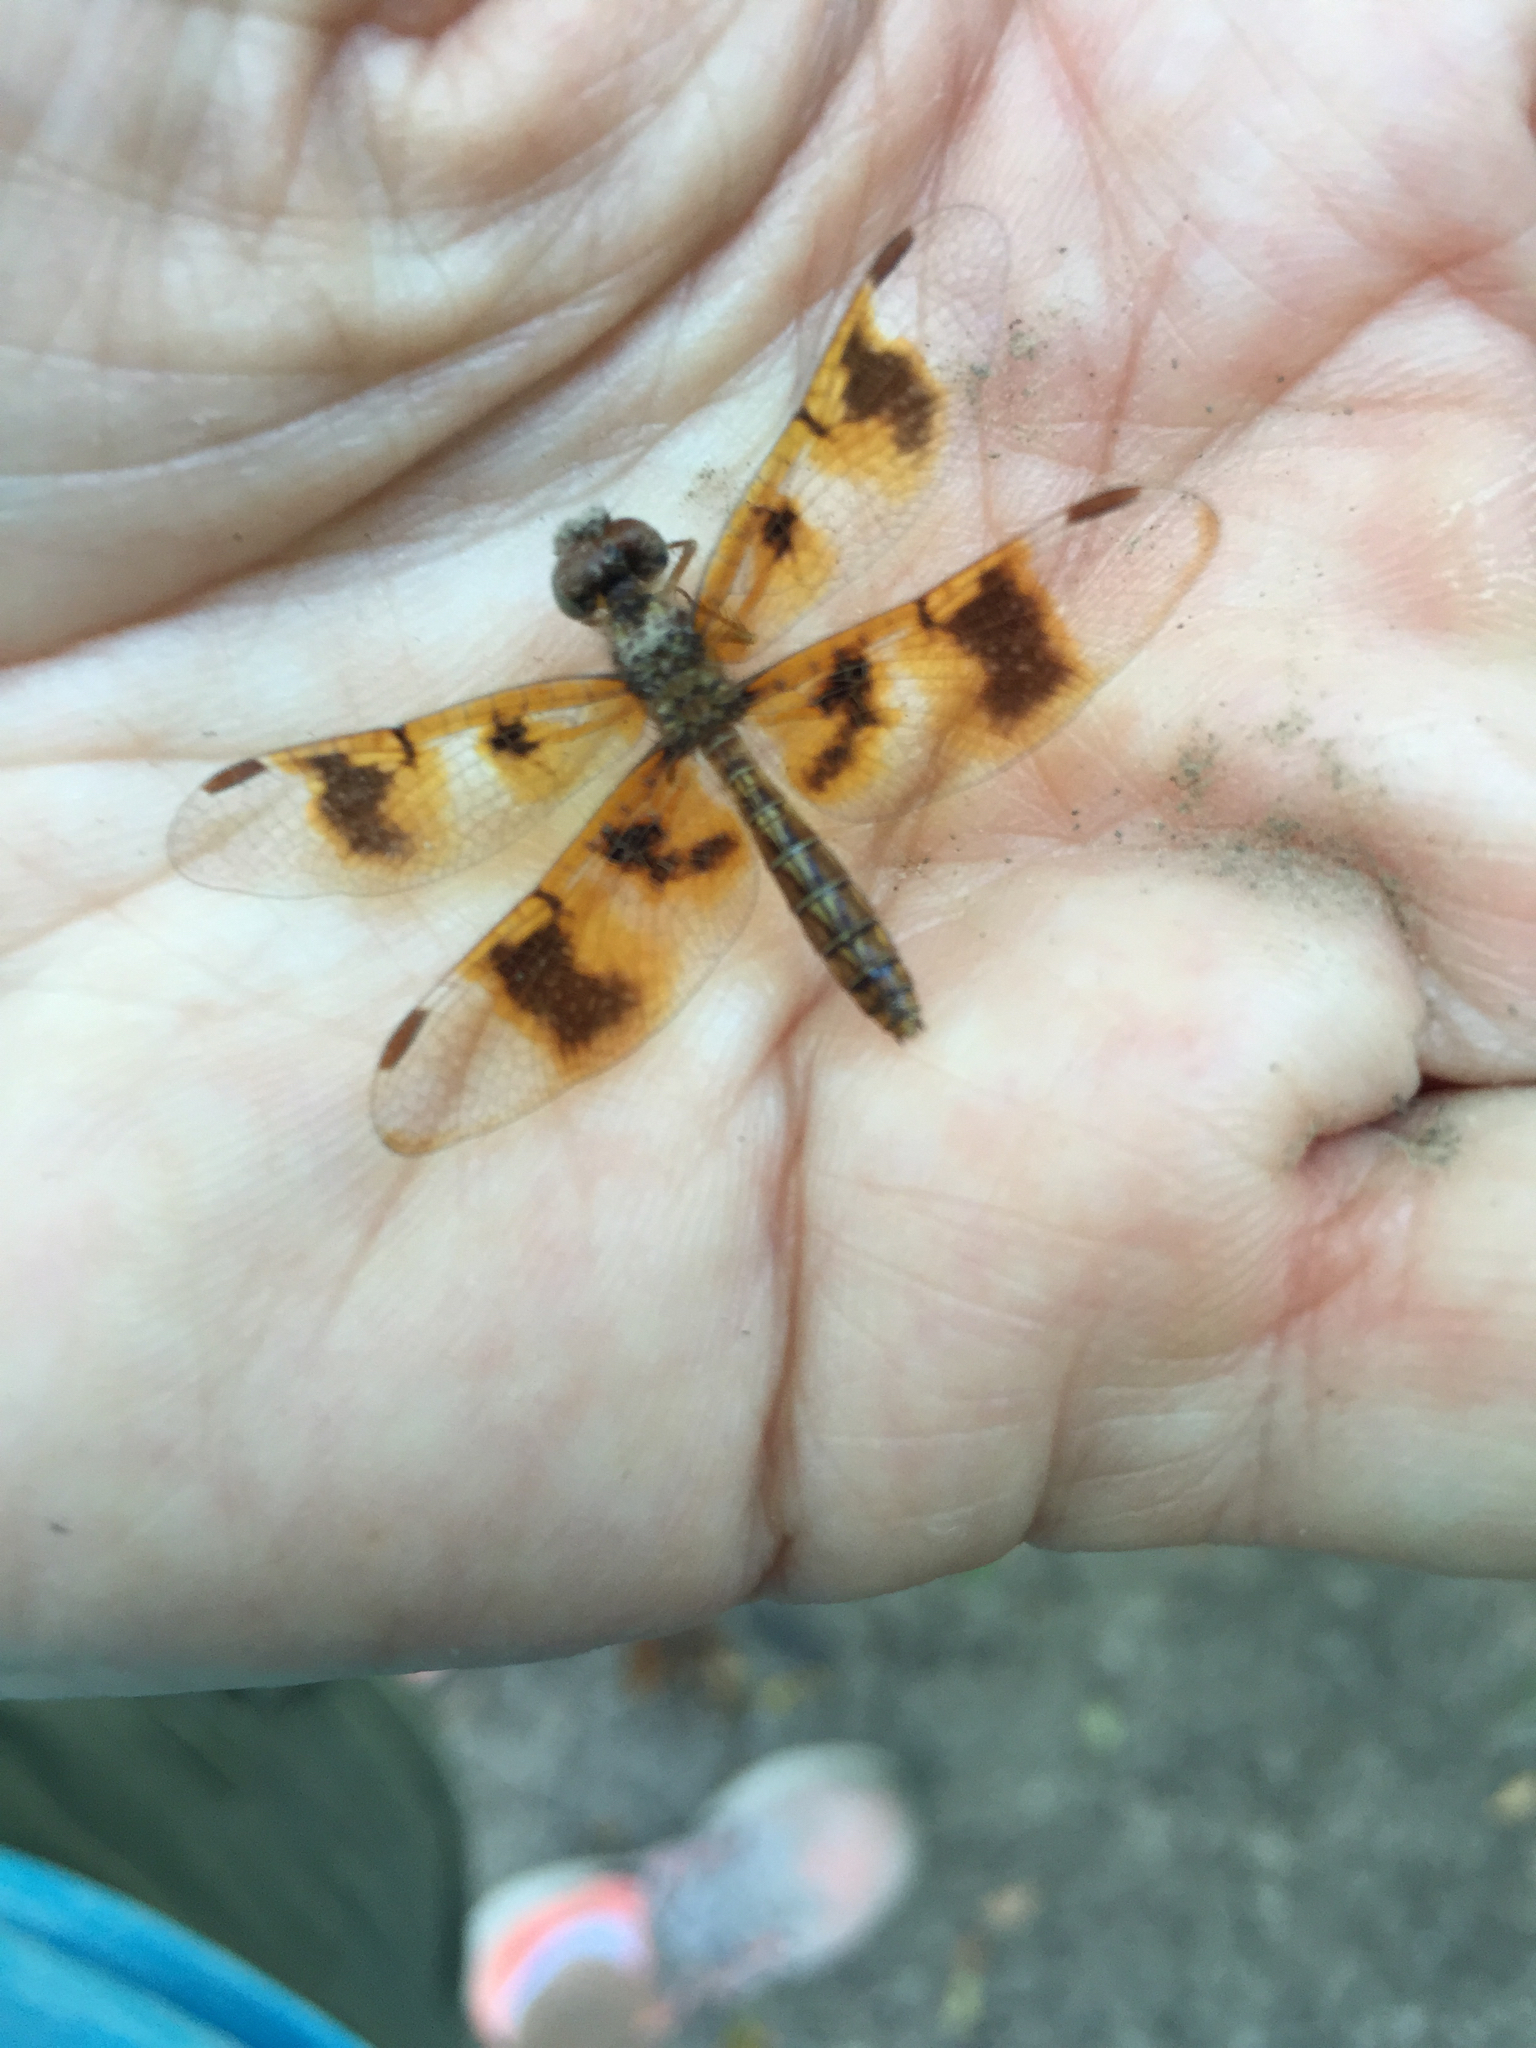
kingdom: Animalia
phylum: Arthropoda
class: Insecta
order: Odonata
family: Libellulidae
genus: Perithemis
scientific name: Perithemis tenera
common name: Eastern amberwing
